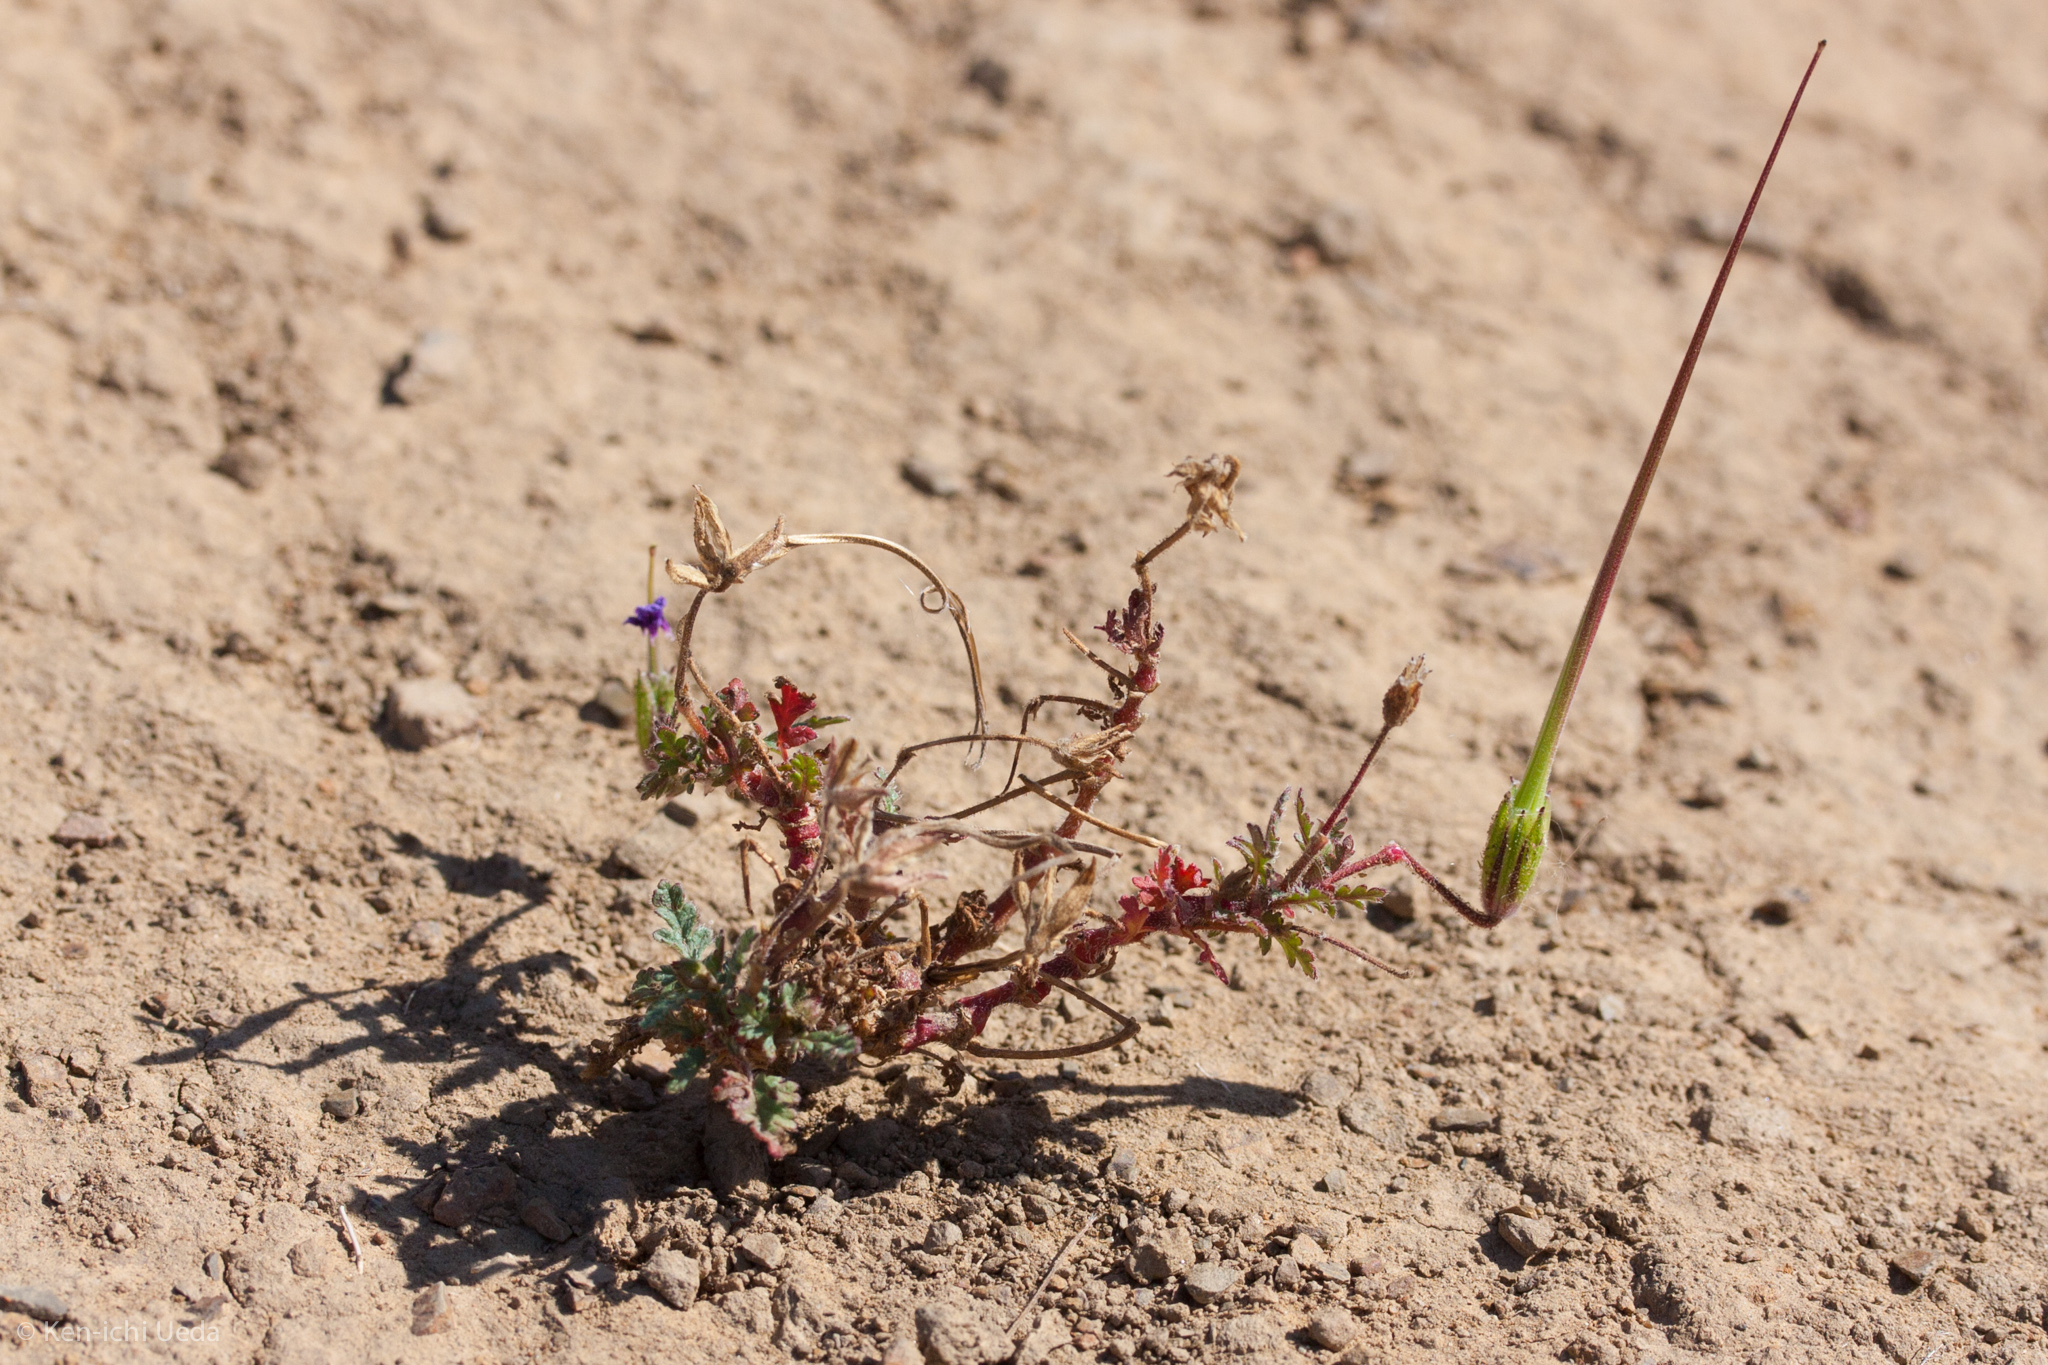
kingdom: Plantae
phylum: Tracheophyta
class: Magnoliopsida
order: Geraniales
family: Geraniaceae
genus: Erodium
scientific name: Erodium botrys
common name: Mediterranean stork's-bill
